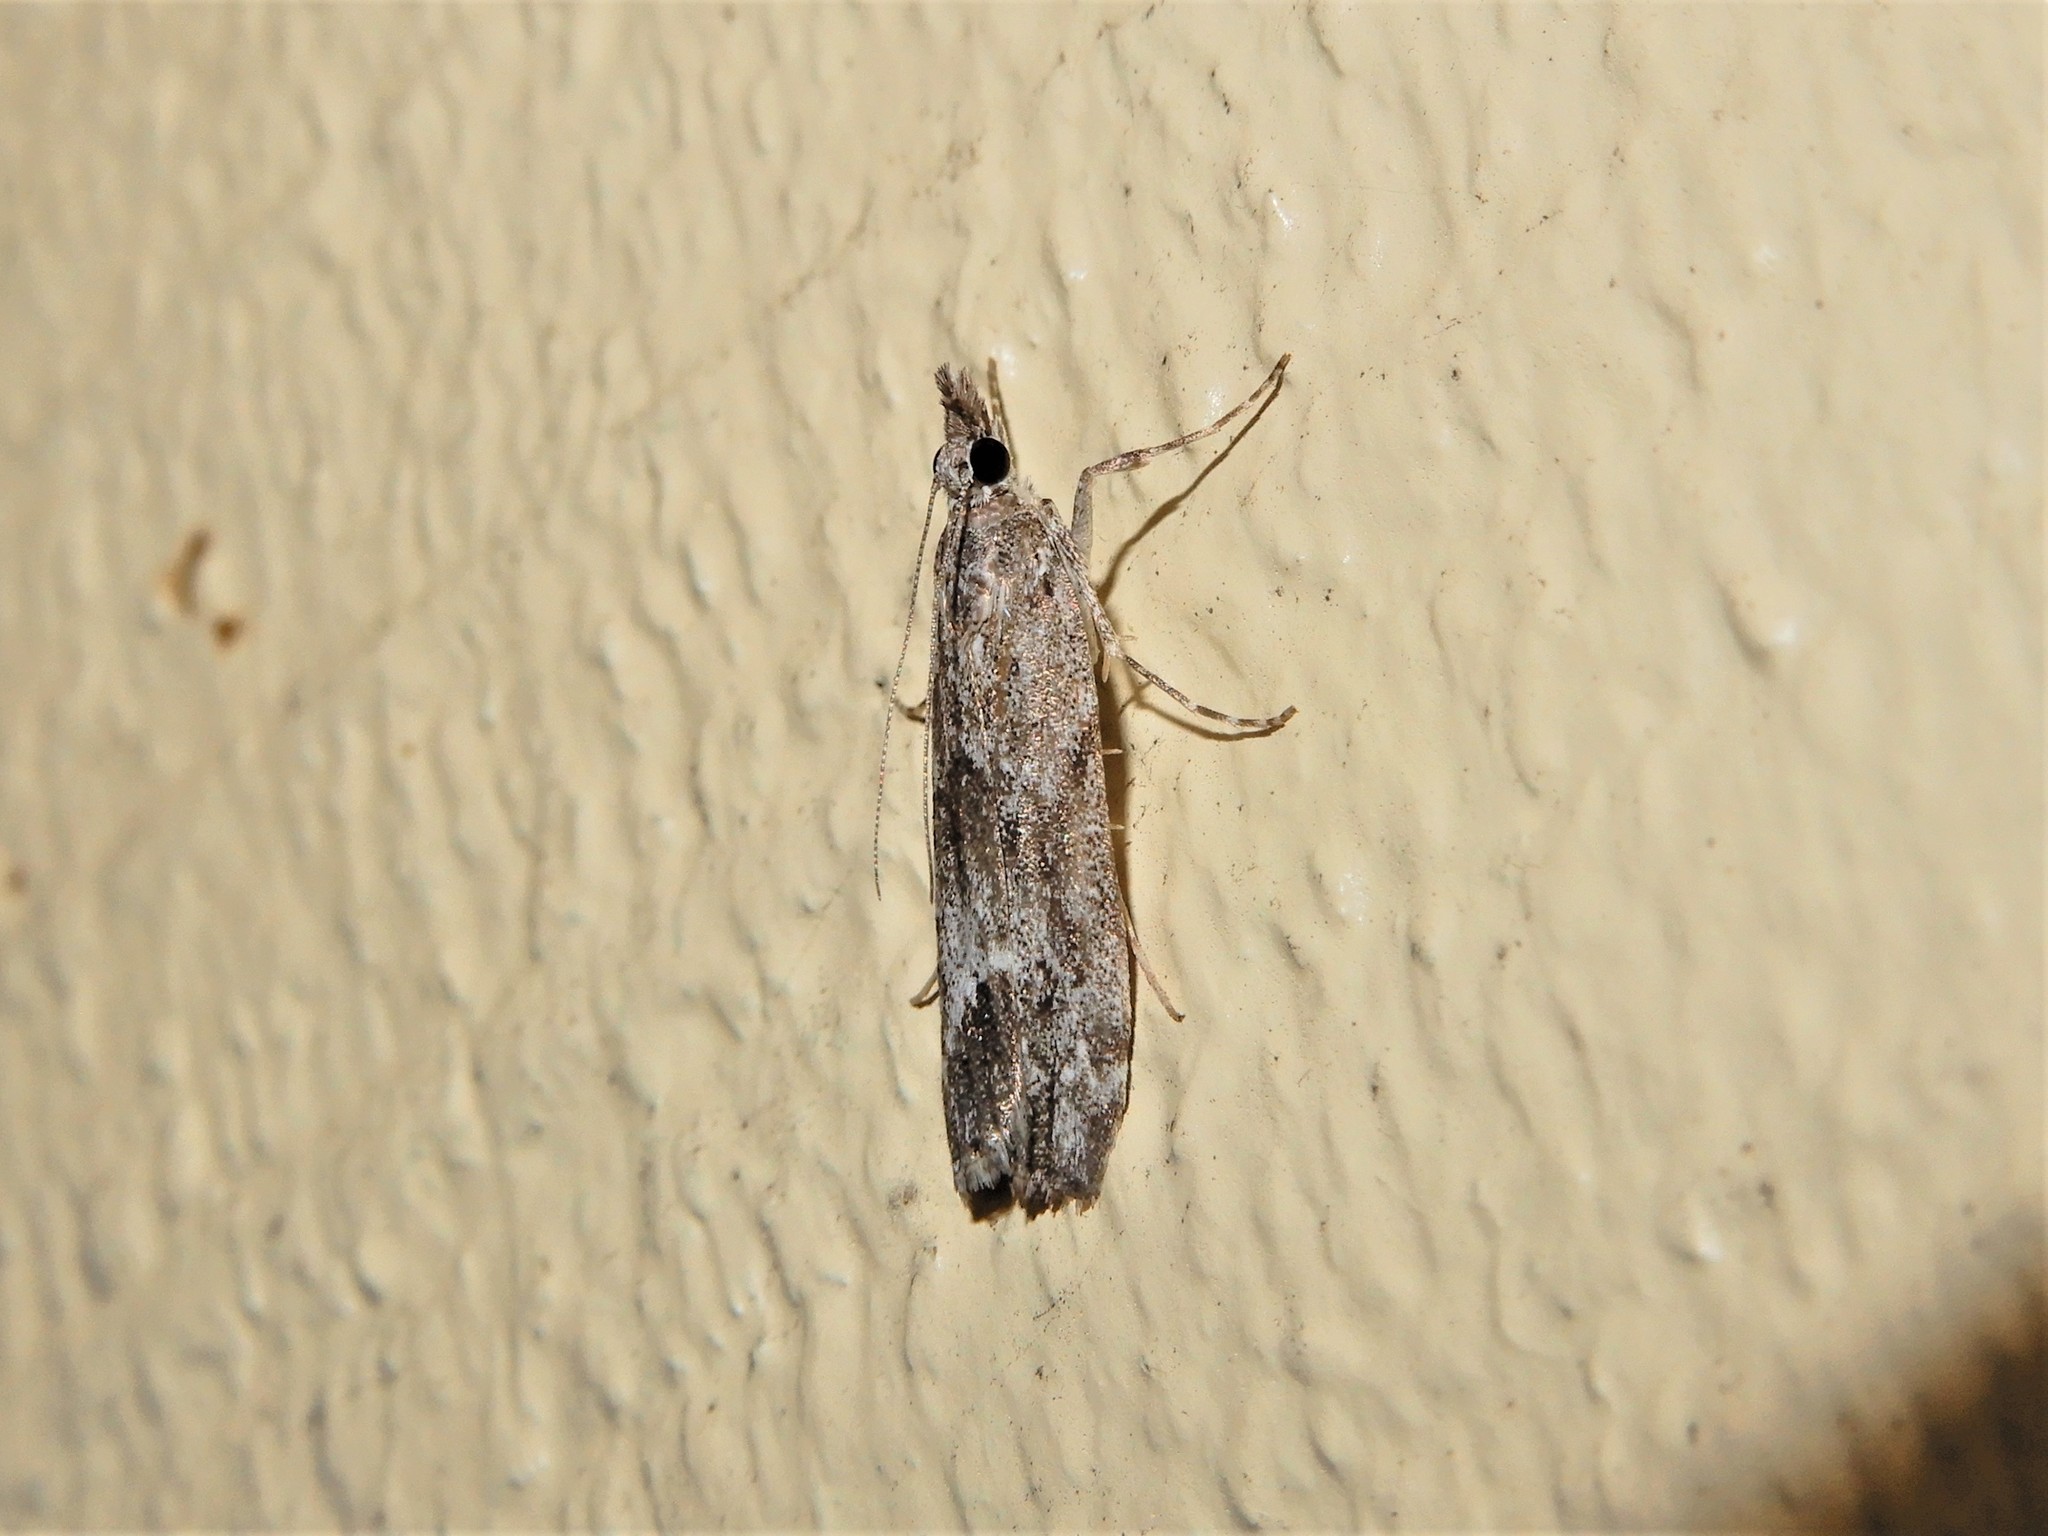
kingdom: Animalia
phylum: Arthropoda
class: Insecta
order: Lepidoptera
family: Crambidae
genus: Eudonia
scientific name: Eudonia rakaiensis
